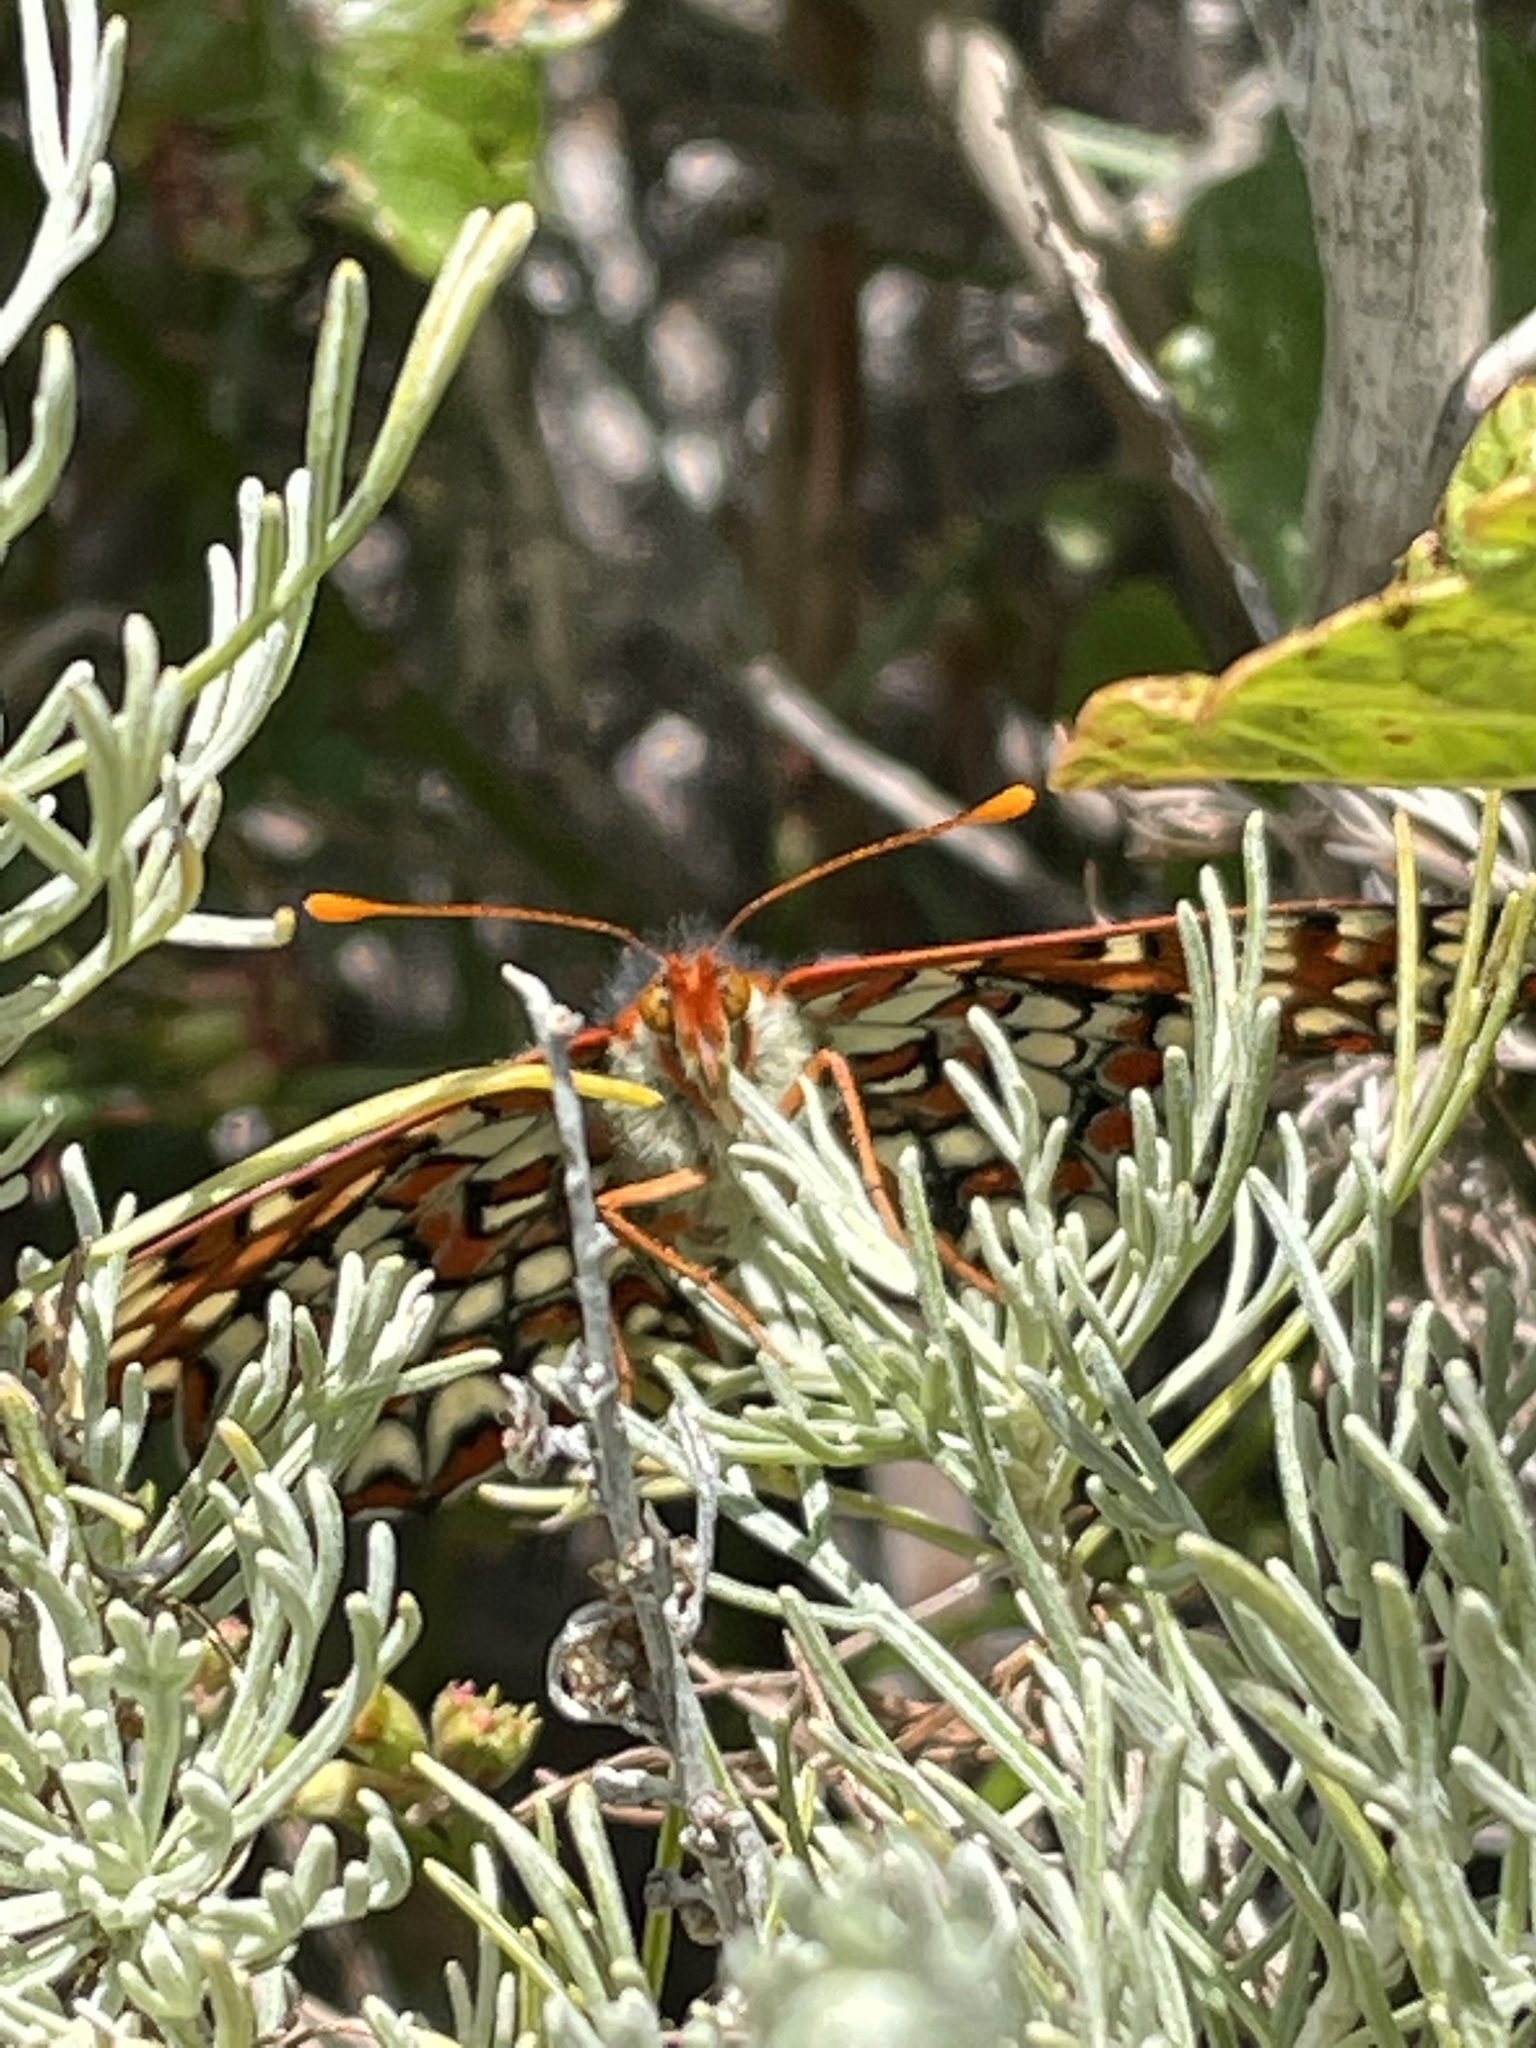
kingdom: Animalia
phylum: Arthropoda
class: Insecta
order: Lepidoptera
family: Nymphalidae
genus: Occidryas
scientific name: Occidryas chalcedona
